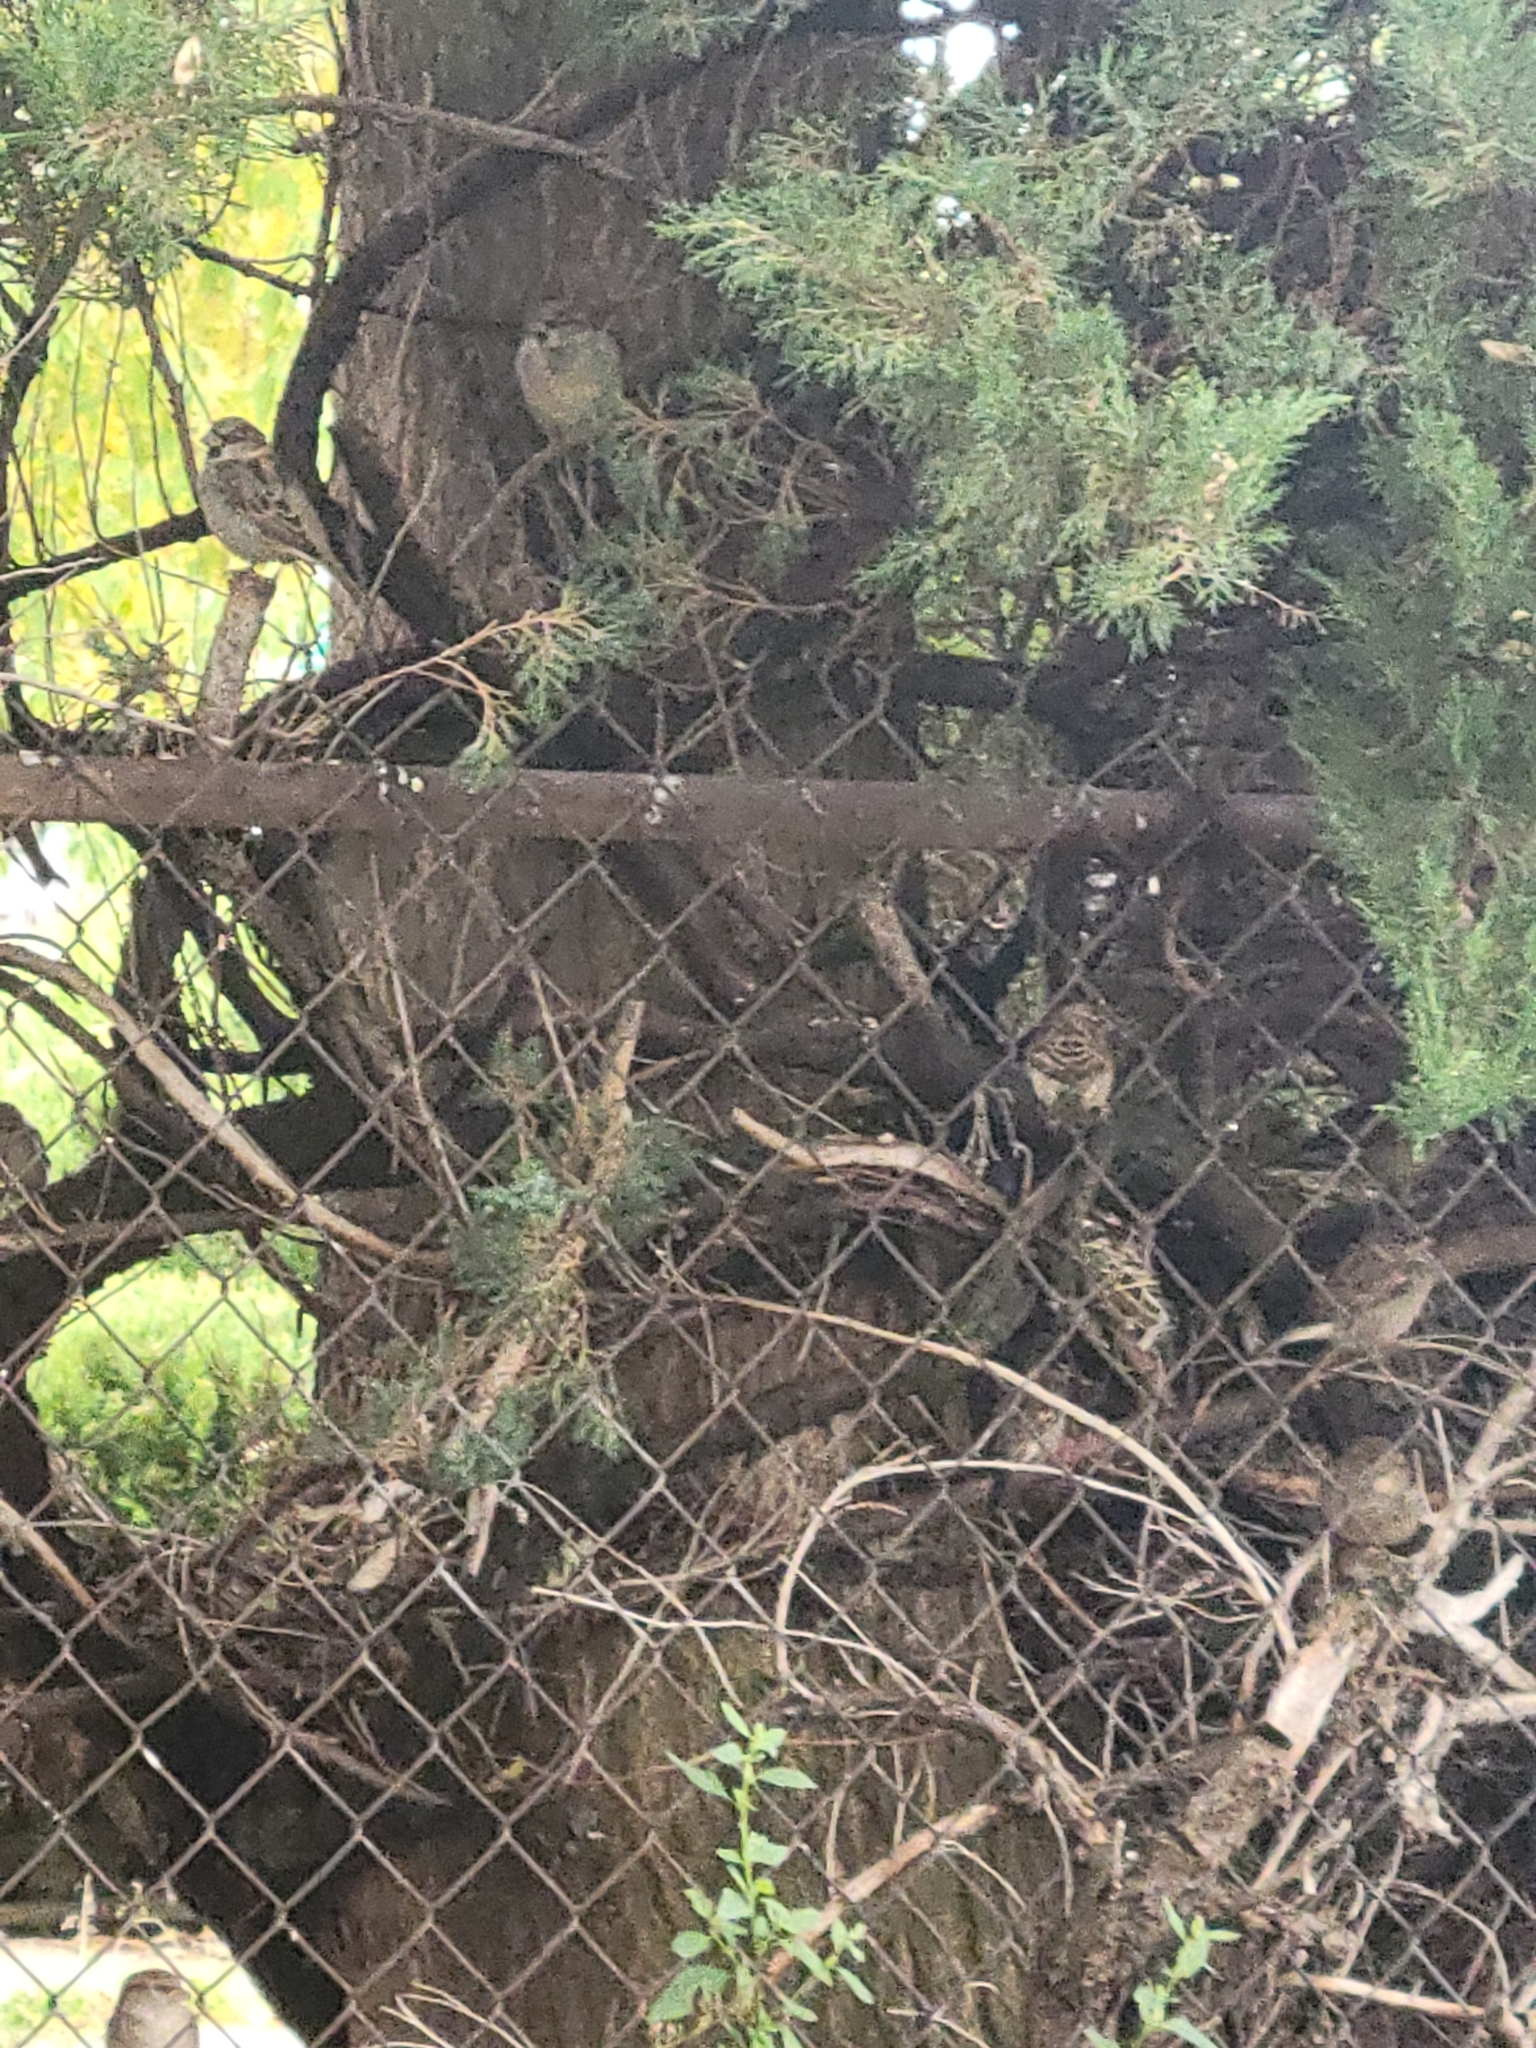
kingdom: Animalia
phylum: Chordata
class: Aves
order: Passeriformes
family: Passeridae
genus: Passer
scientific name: Passer domesticus
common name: House sparrow
